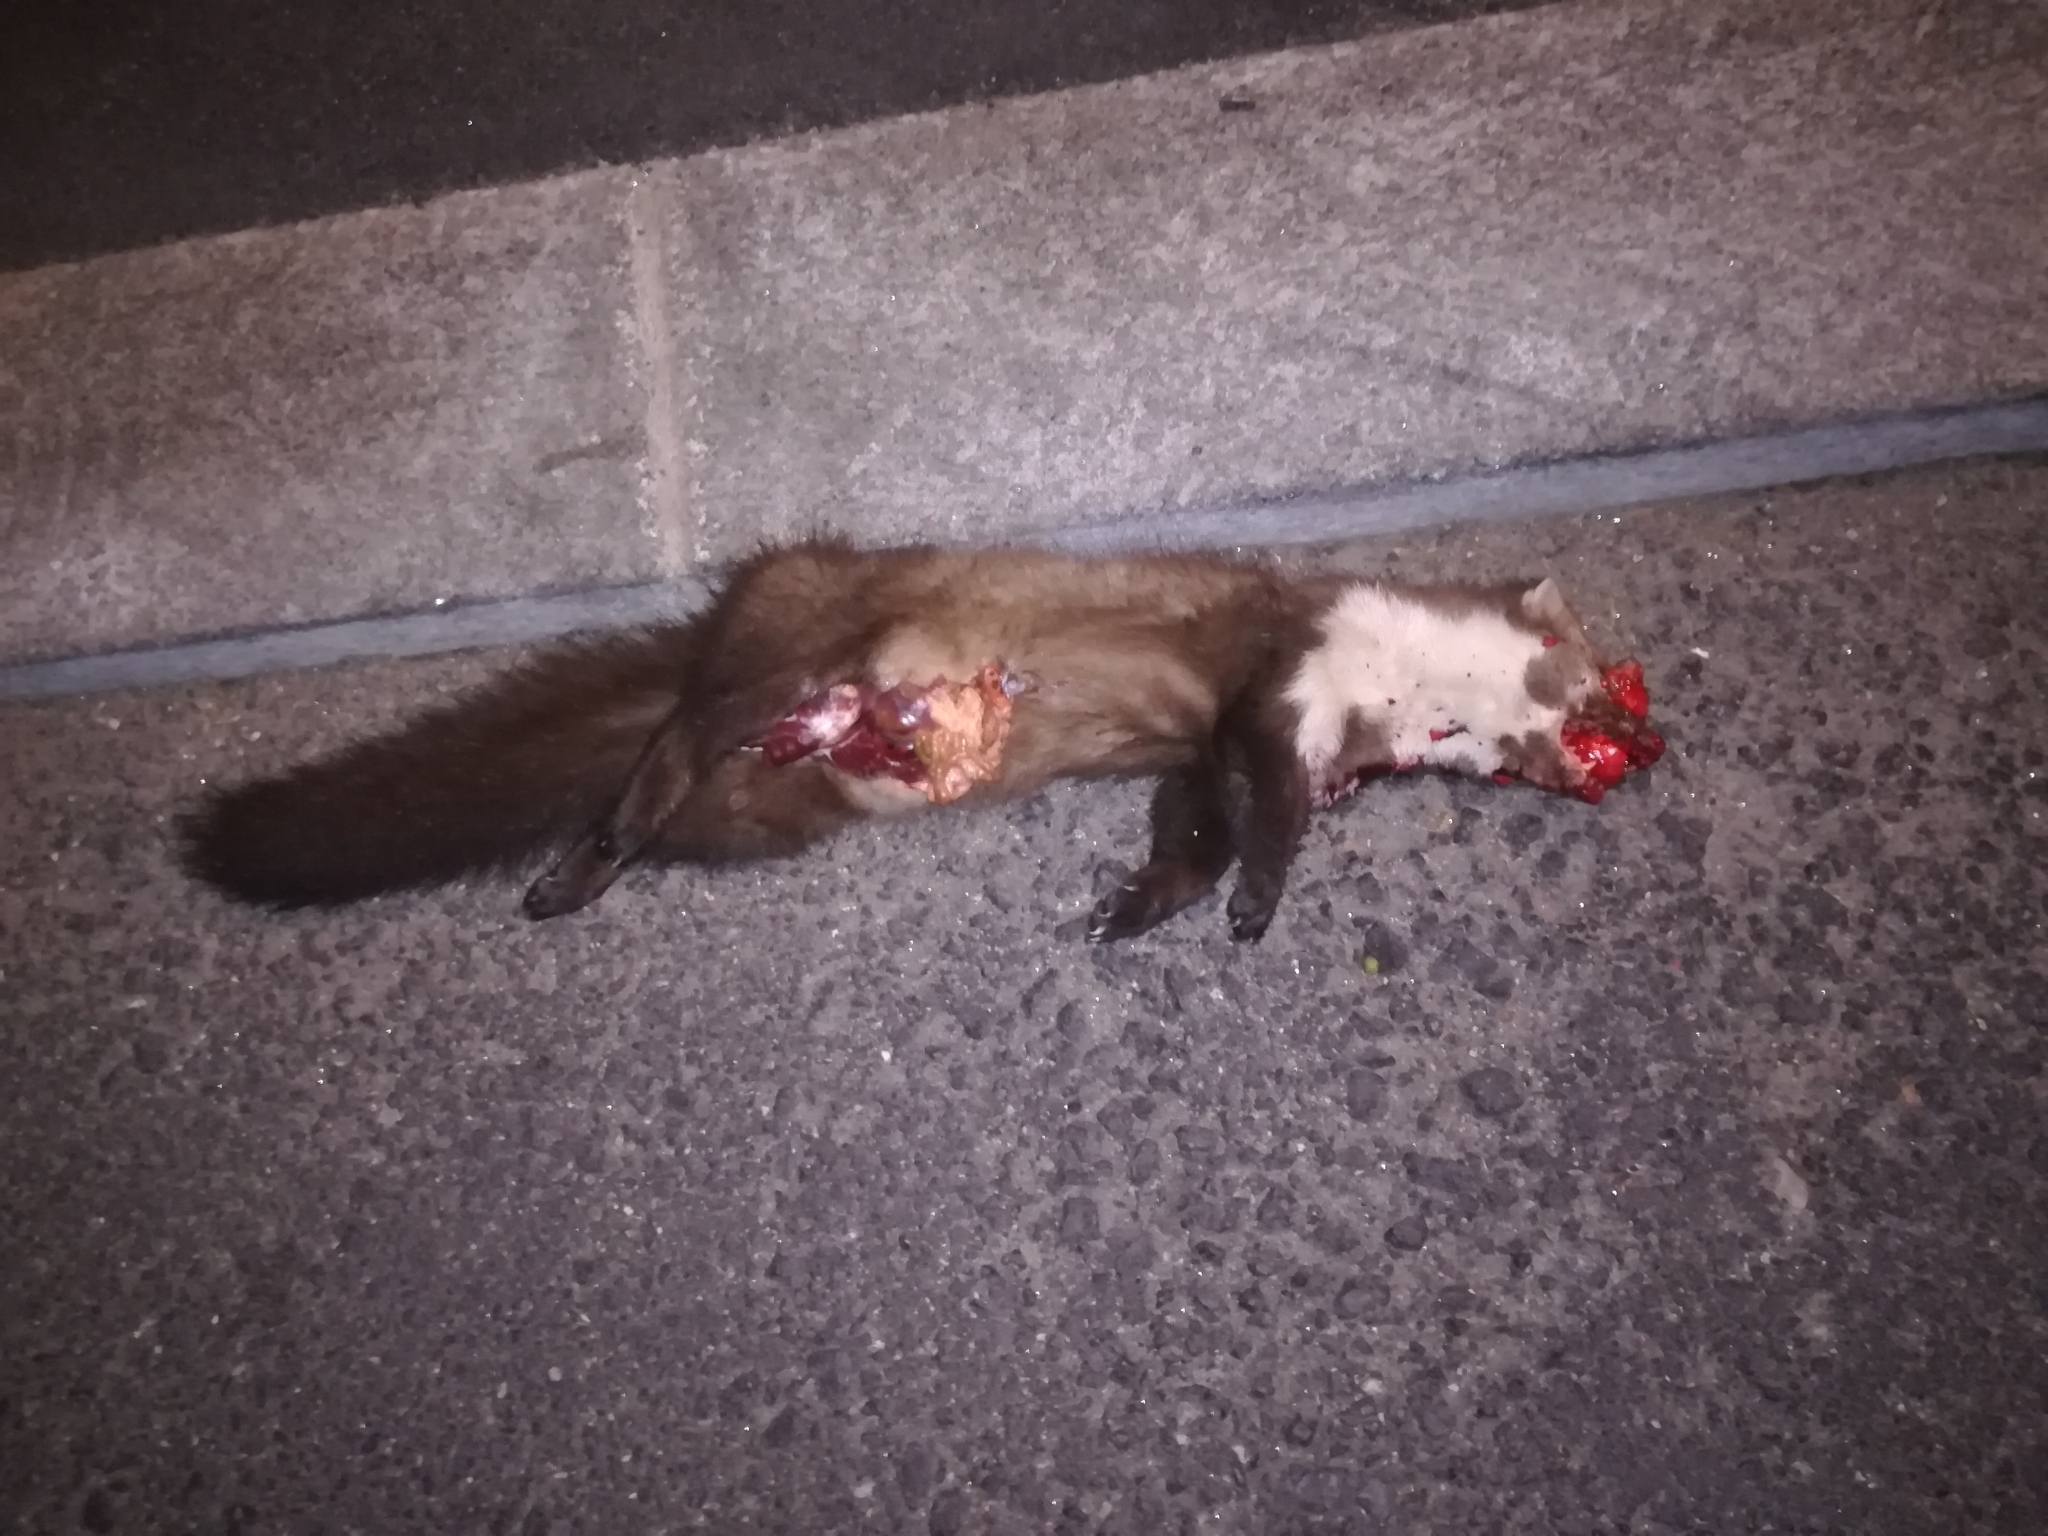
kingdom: Animalia
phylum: Chordata
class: Mammalia
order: Carnivora
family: Mustelidae
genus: Martes
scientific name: Martes foina
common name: Beech marten
